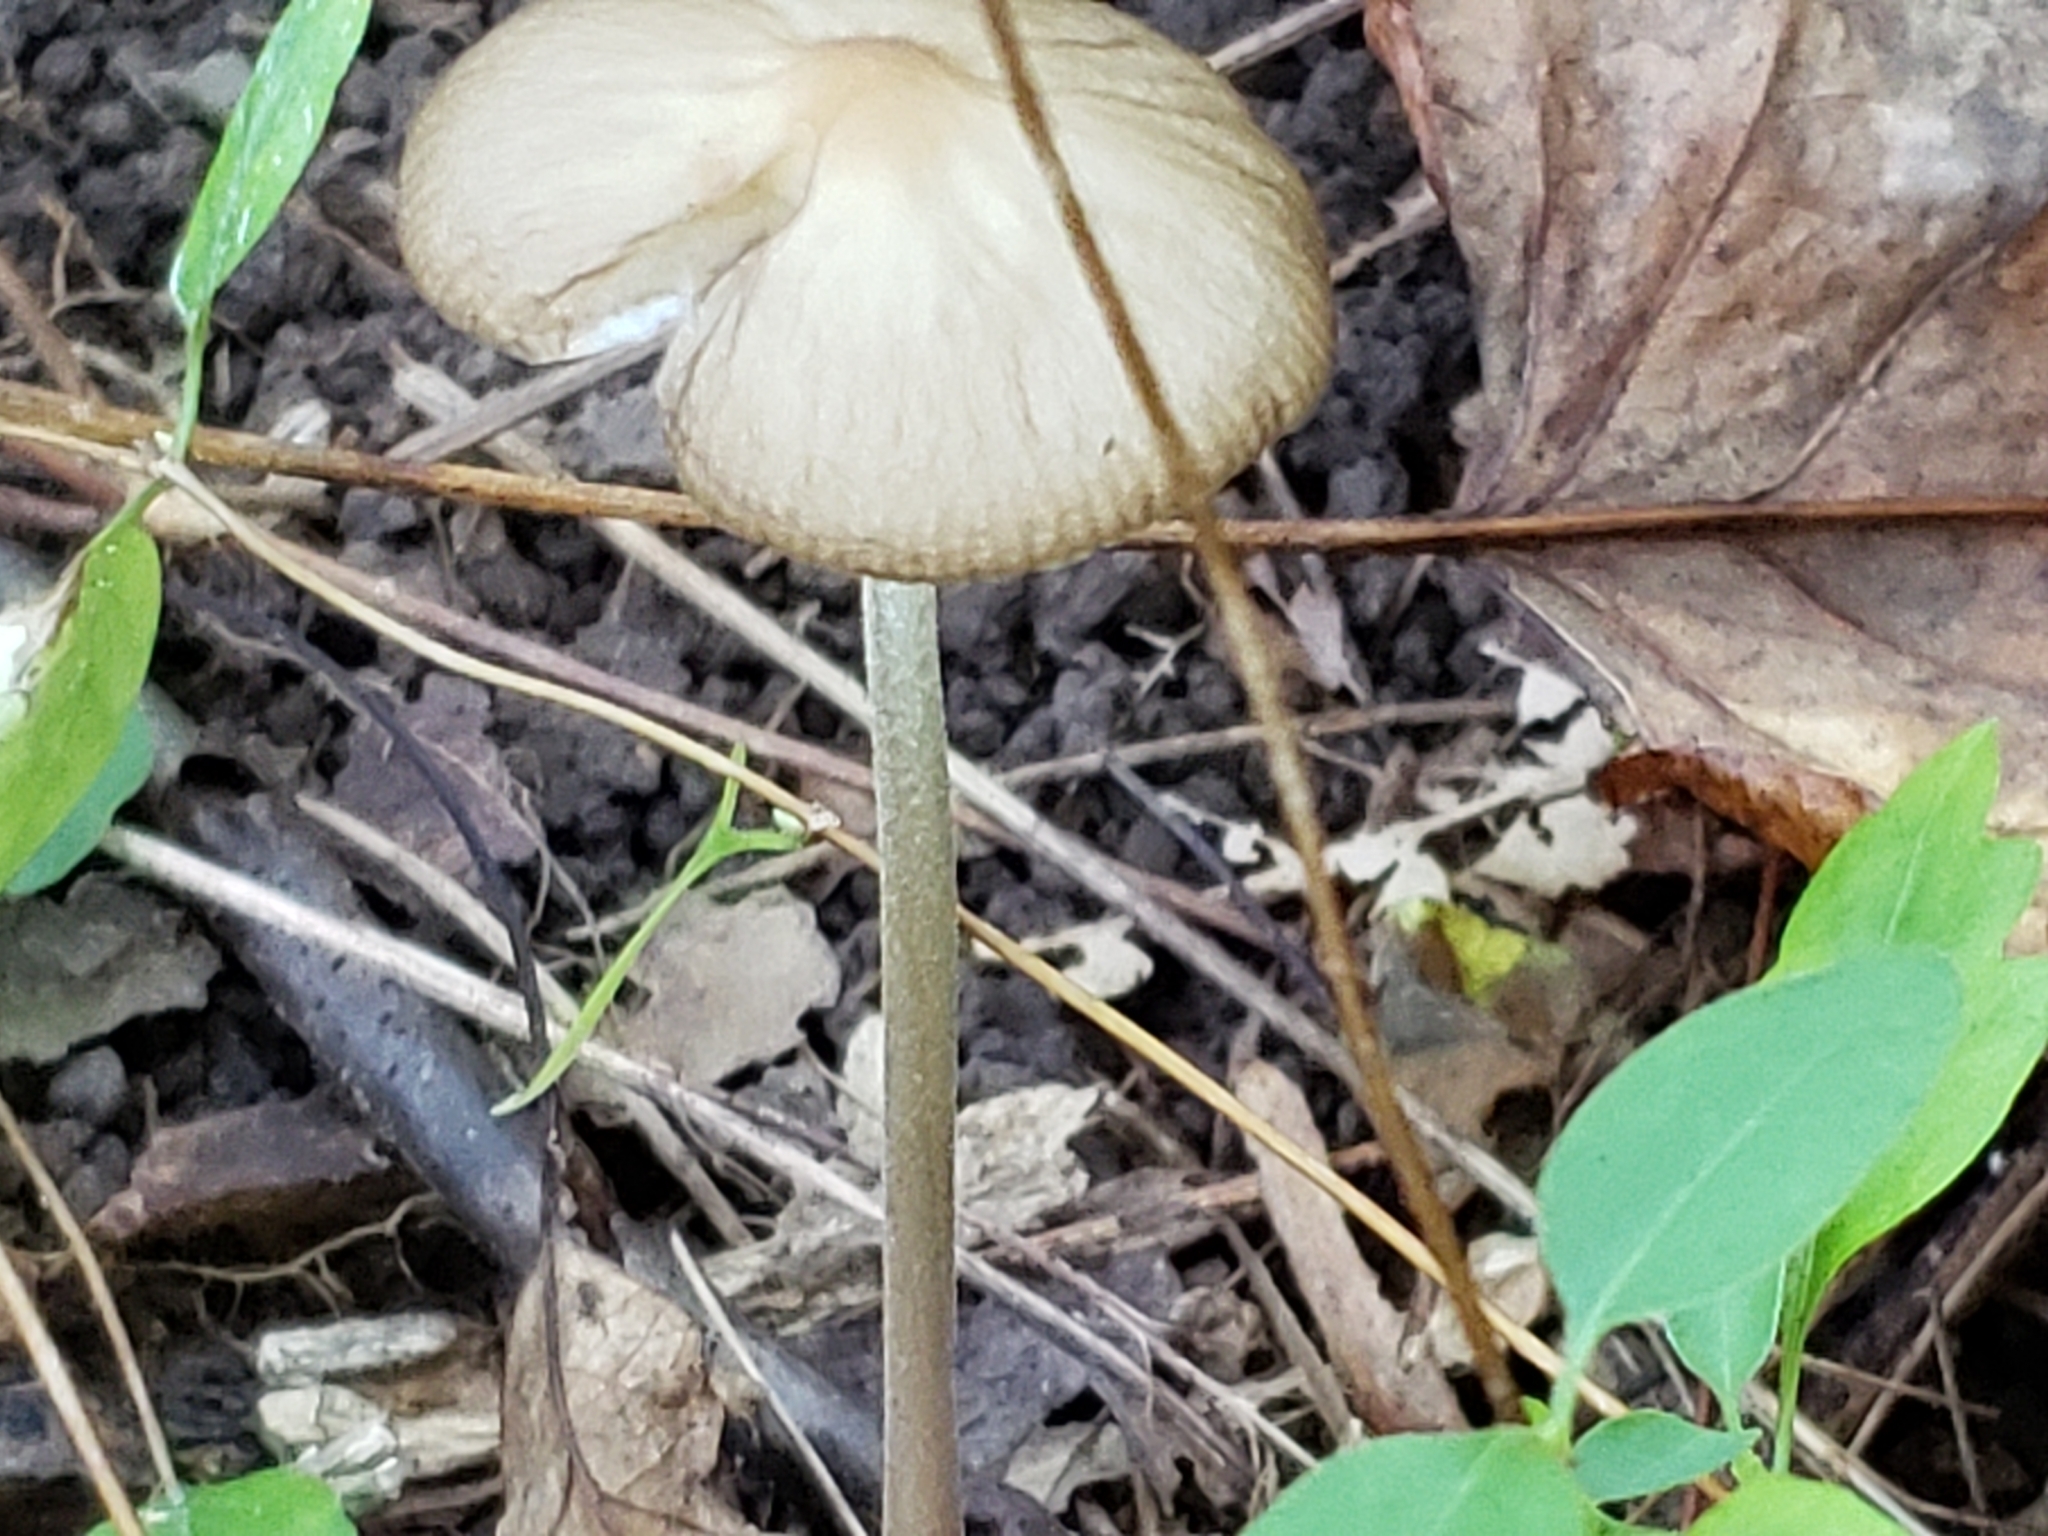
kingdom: Fungi
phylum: Basidiomycota
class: Agaricomycetes
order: Agaricales
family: Physalacriaceae
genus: Hymenopellis
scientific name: Hymenopellis furfuracea
